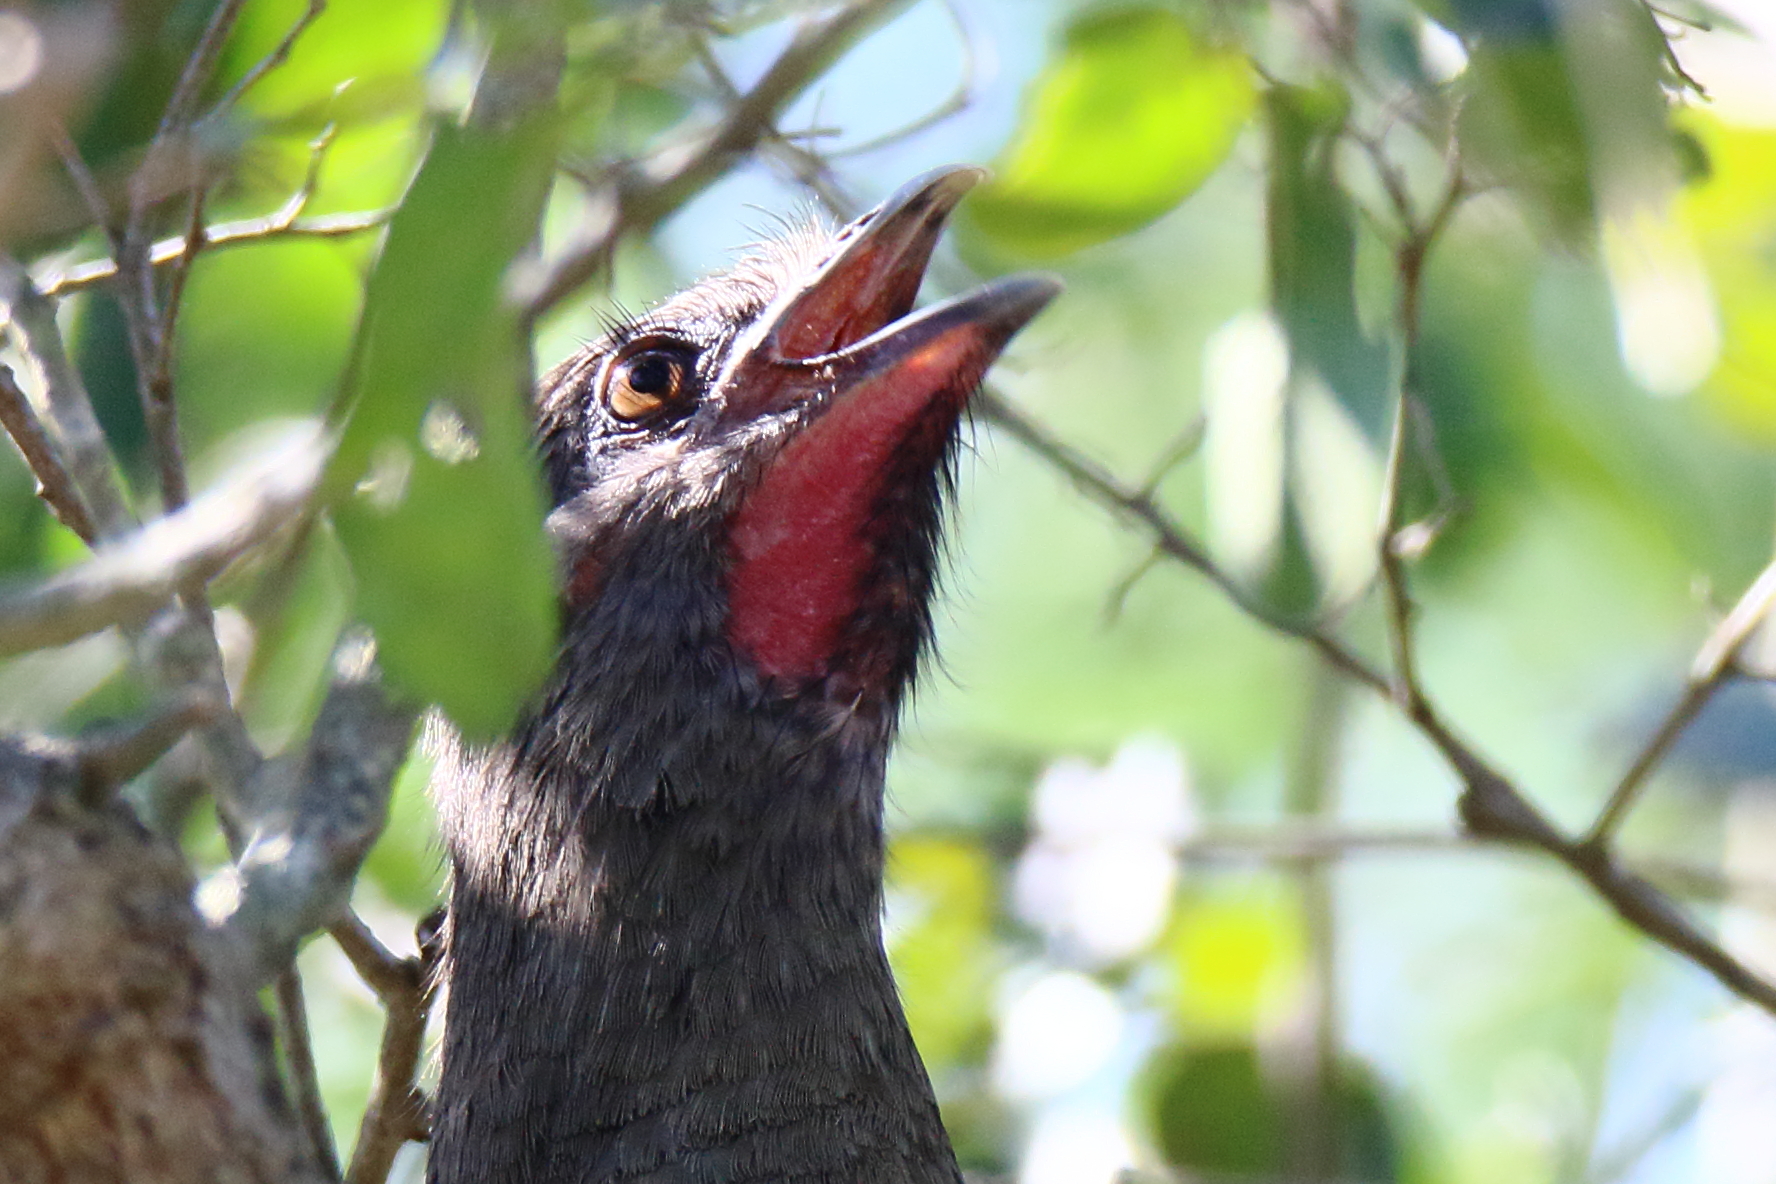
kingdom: Animalia
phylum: Chordata
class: Aves
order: Galliformes
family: Cracidae
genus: Ortalis
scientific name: Ortalis vetula
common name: Plain chachalaca
